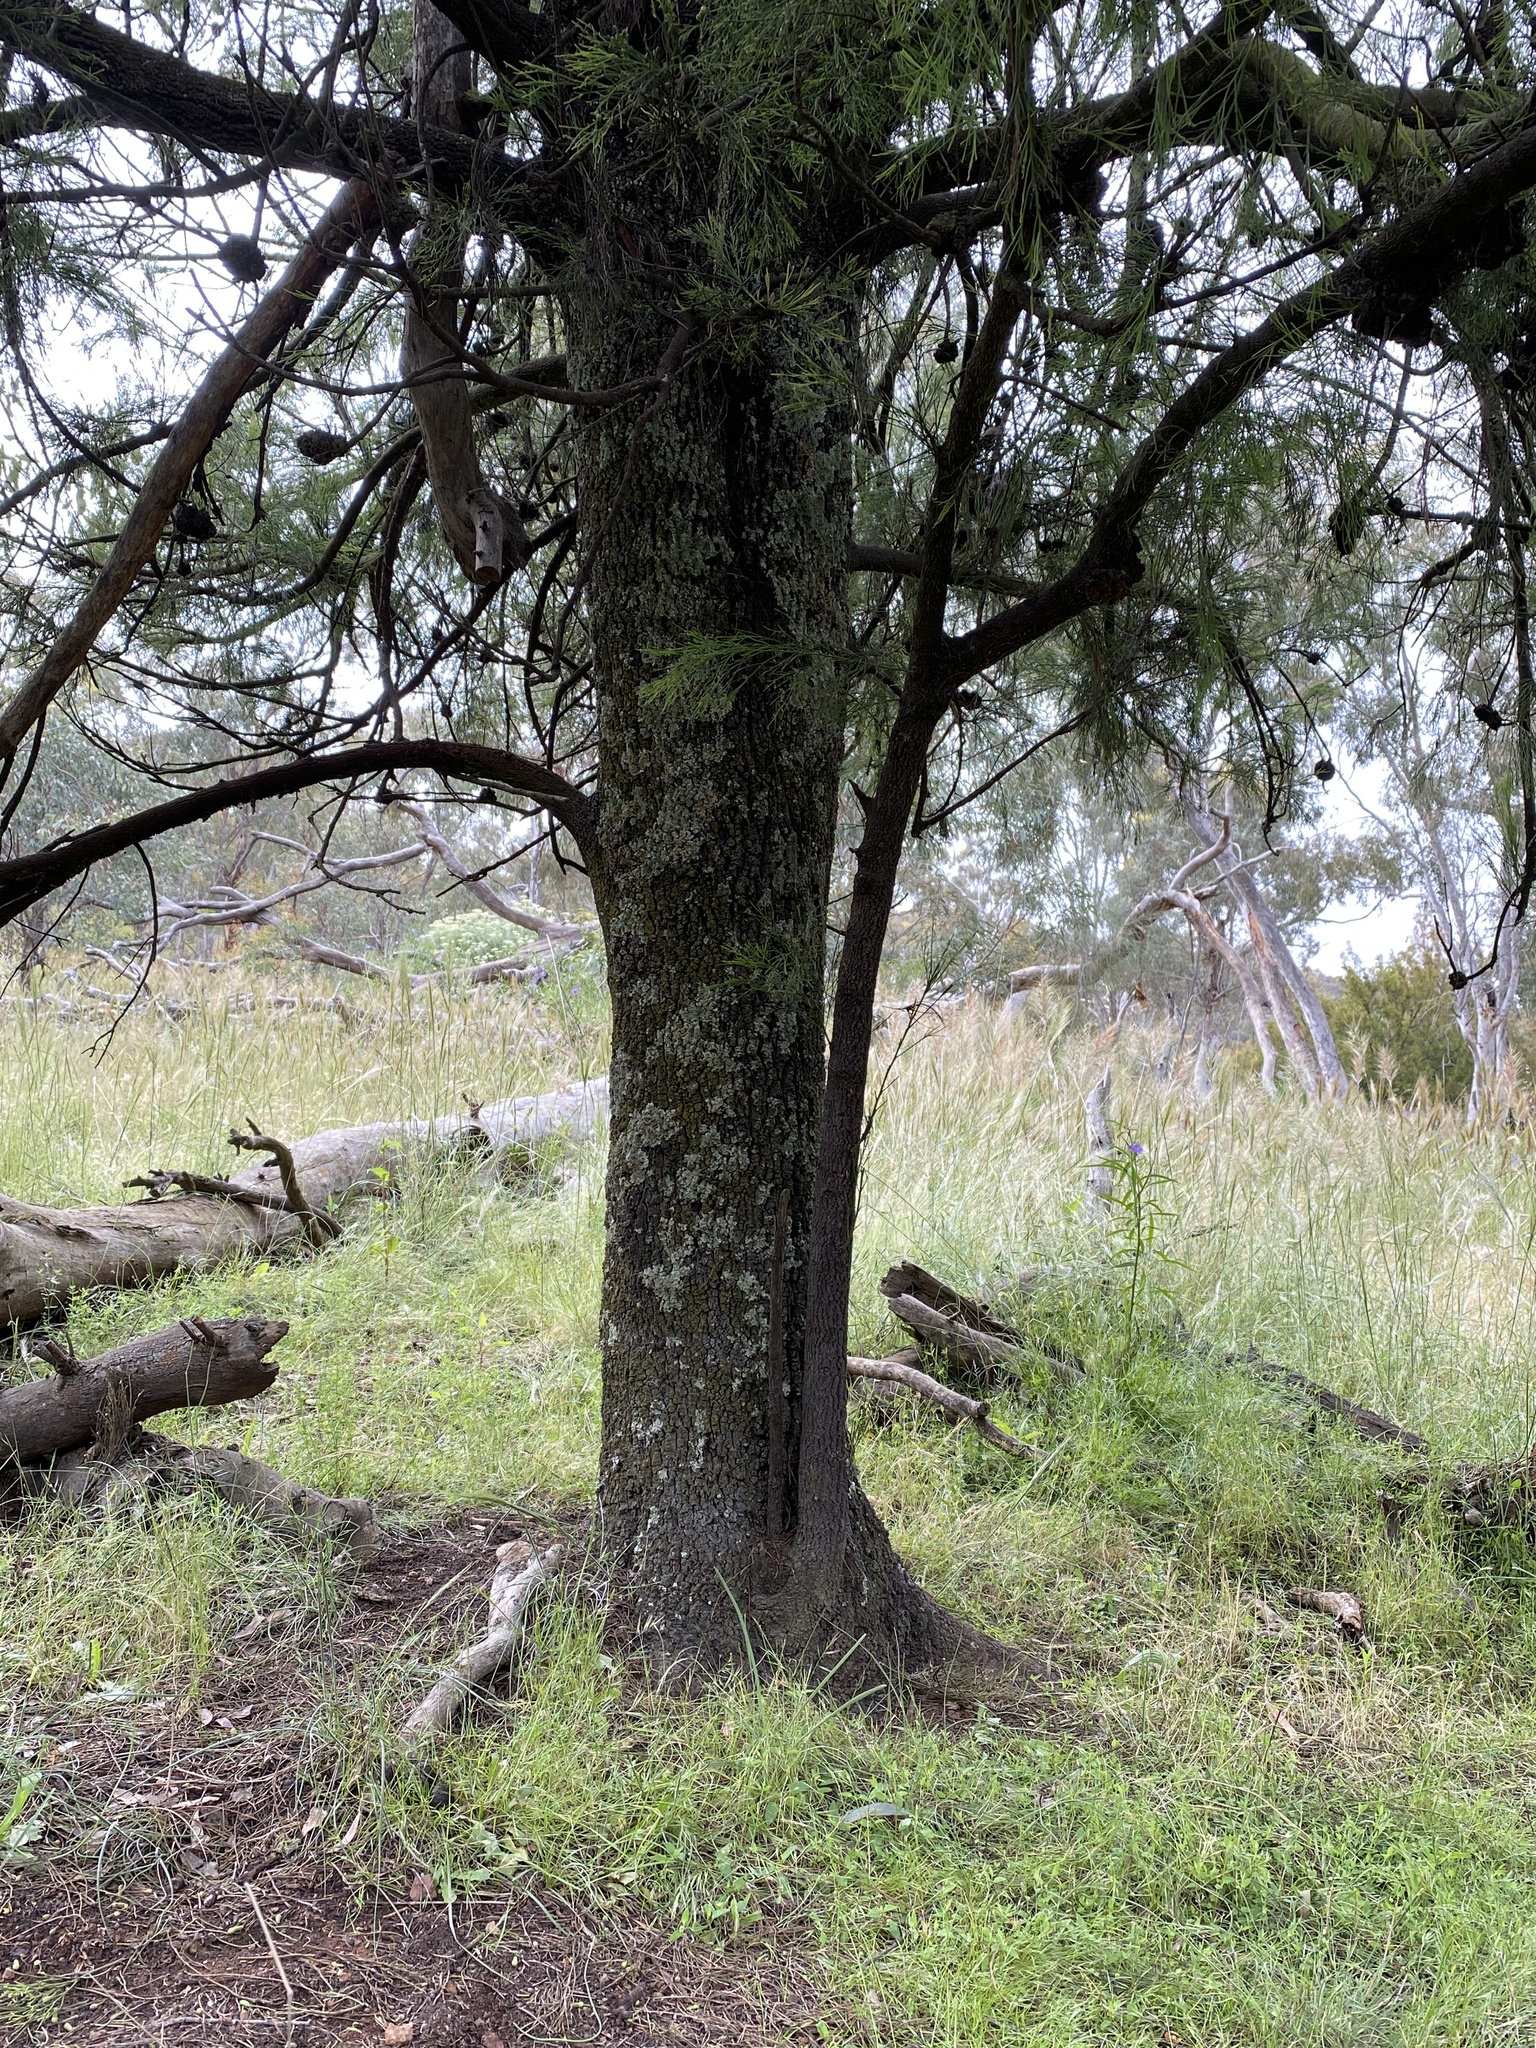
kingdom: Plantae
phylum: Tracheophyta
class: Magnoliopsida
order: Santalales
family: Santalaceae
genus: Exocarpos
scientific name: Exocarpos cupressiformis
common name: Cherry ballart
